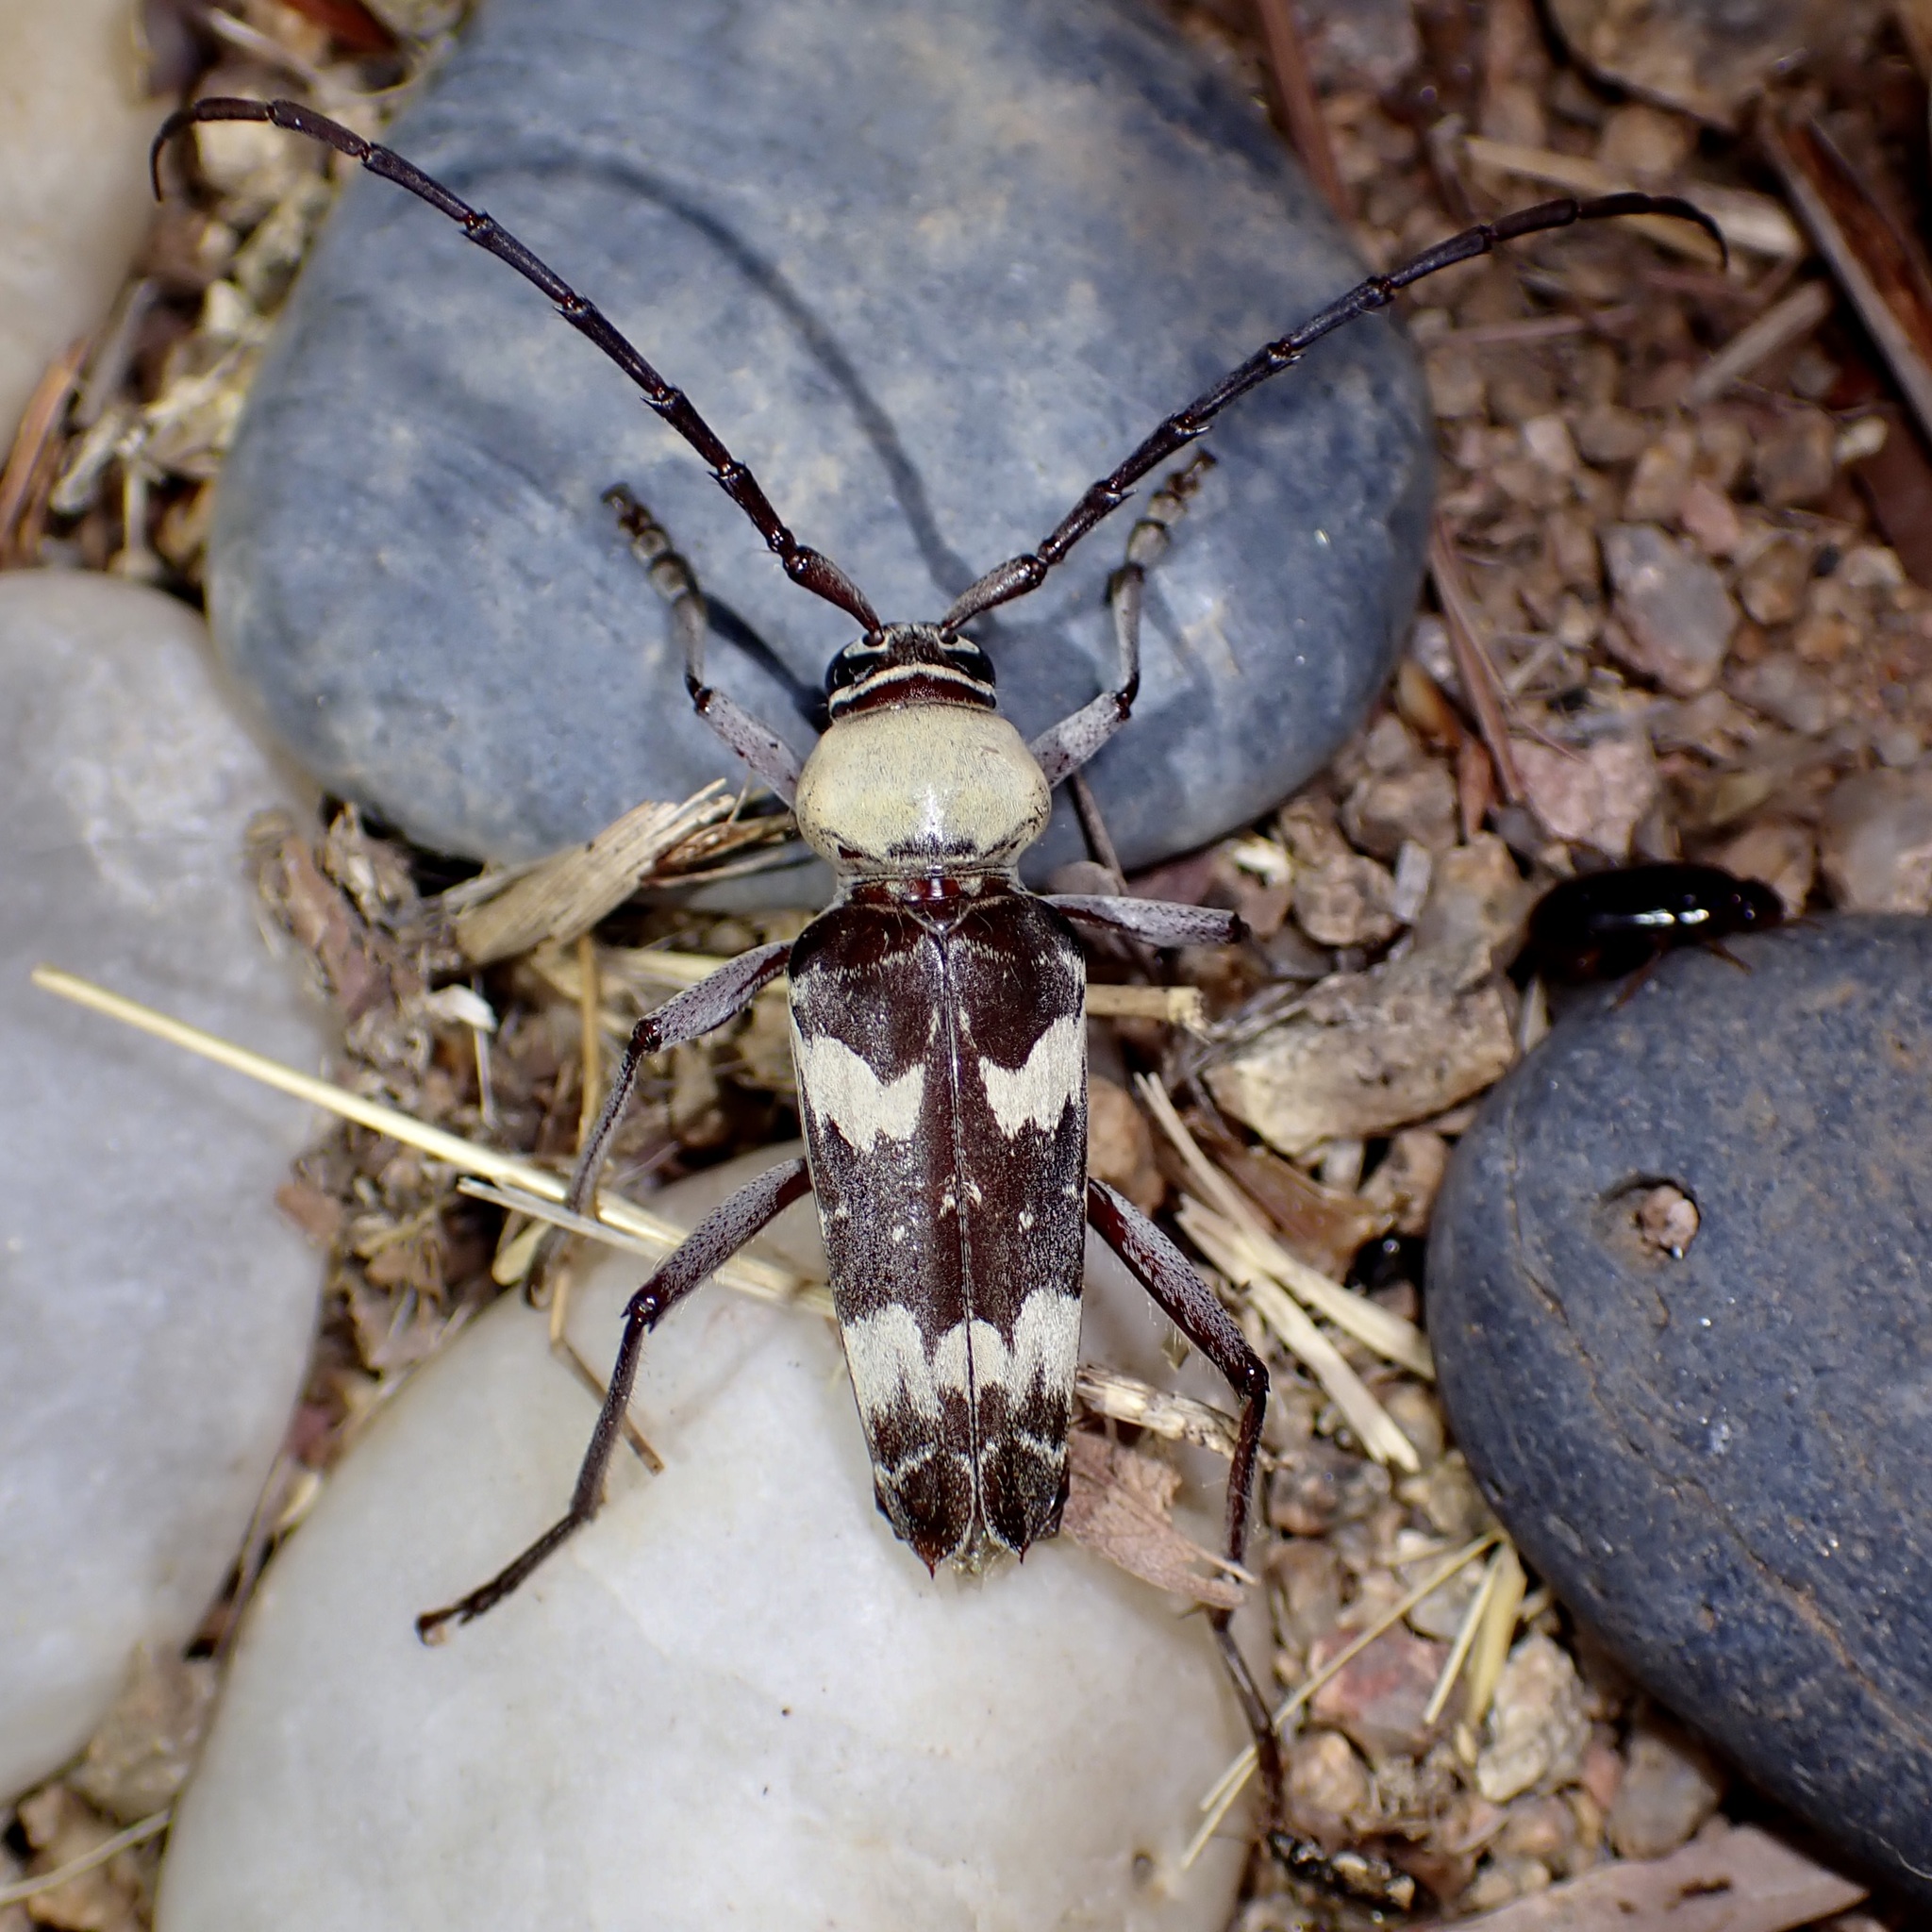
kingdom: Animalia
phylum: Arthropoda
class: Insecta
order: Coleoptera
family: Cerambycidae
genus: Megacyllene
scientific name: Megacyllene antennata
